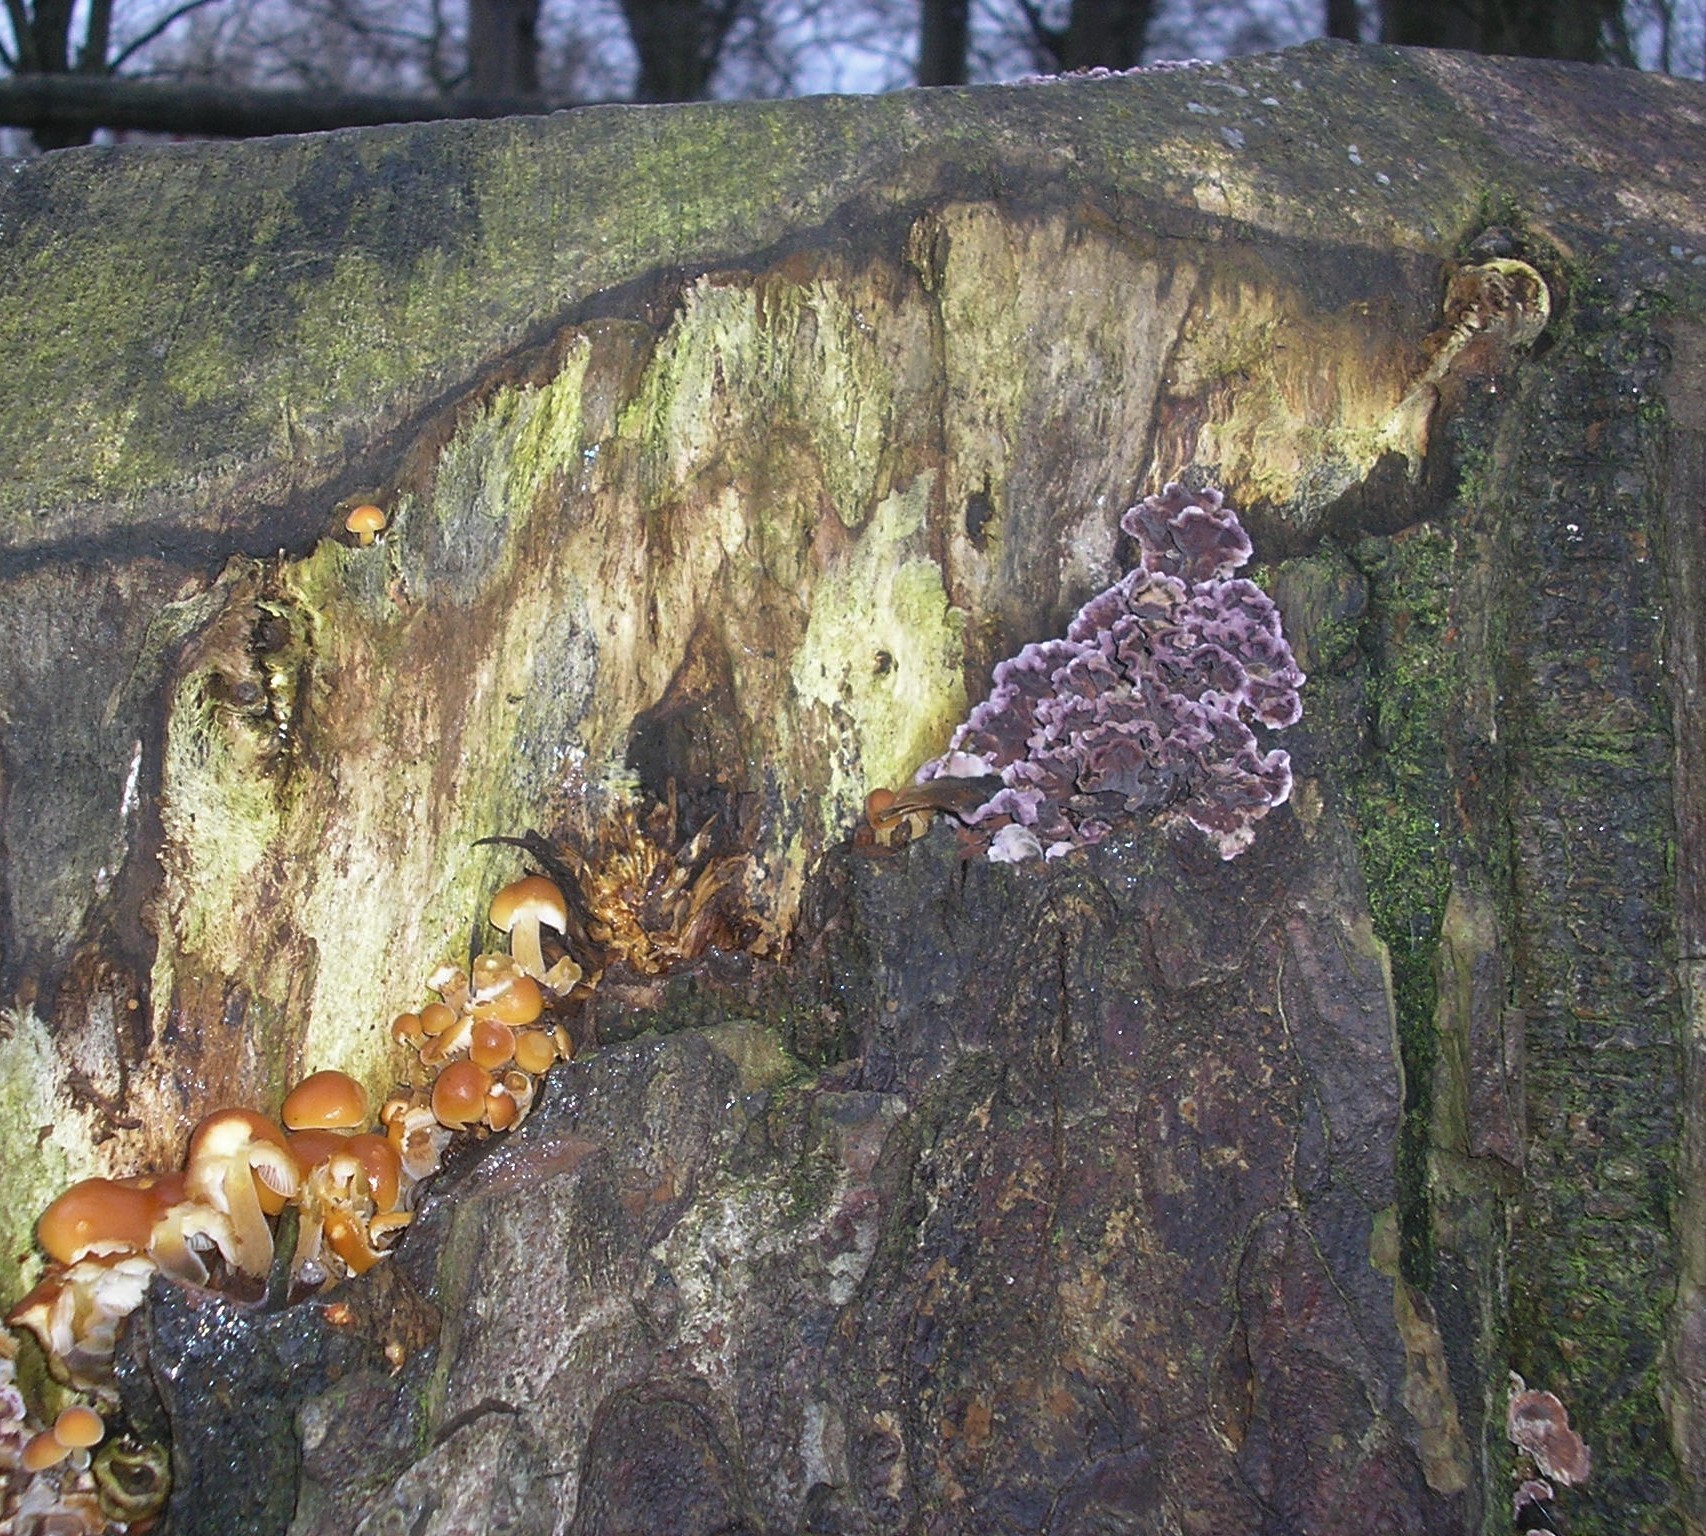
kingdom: Fungi
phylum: Basidiomycota
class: Agaricomycetes
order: Agaricales
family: Cyphellaceae
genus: Chondrostereum
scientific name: Chondrostereum purpureum
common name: Silver leaf disease
